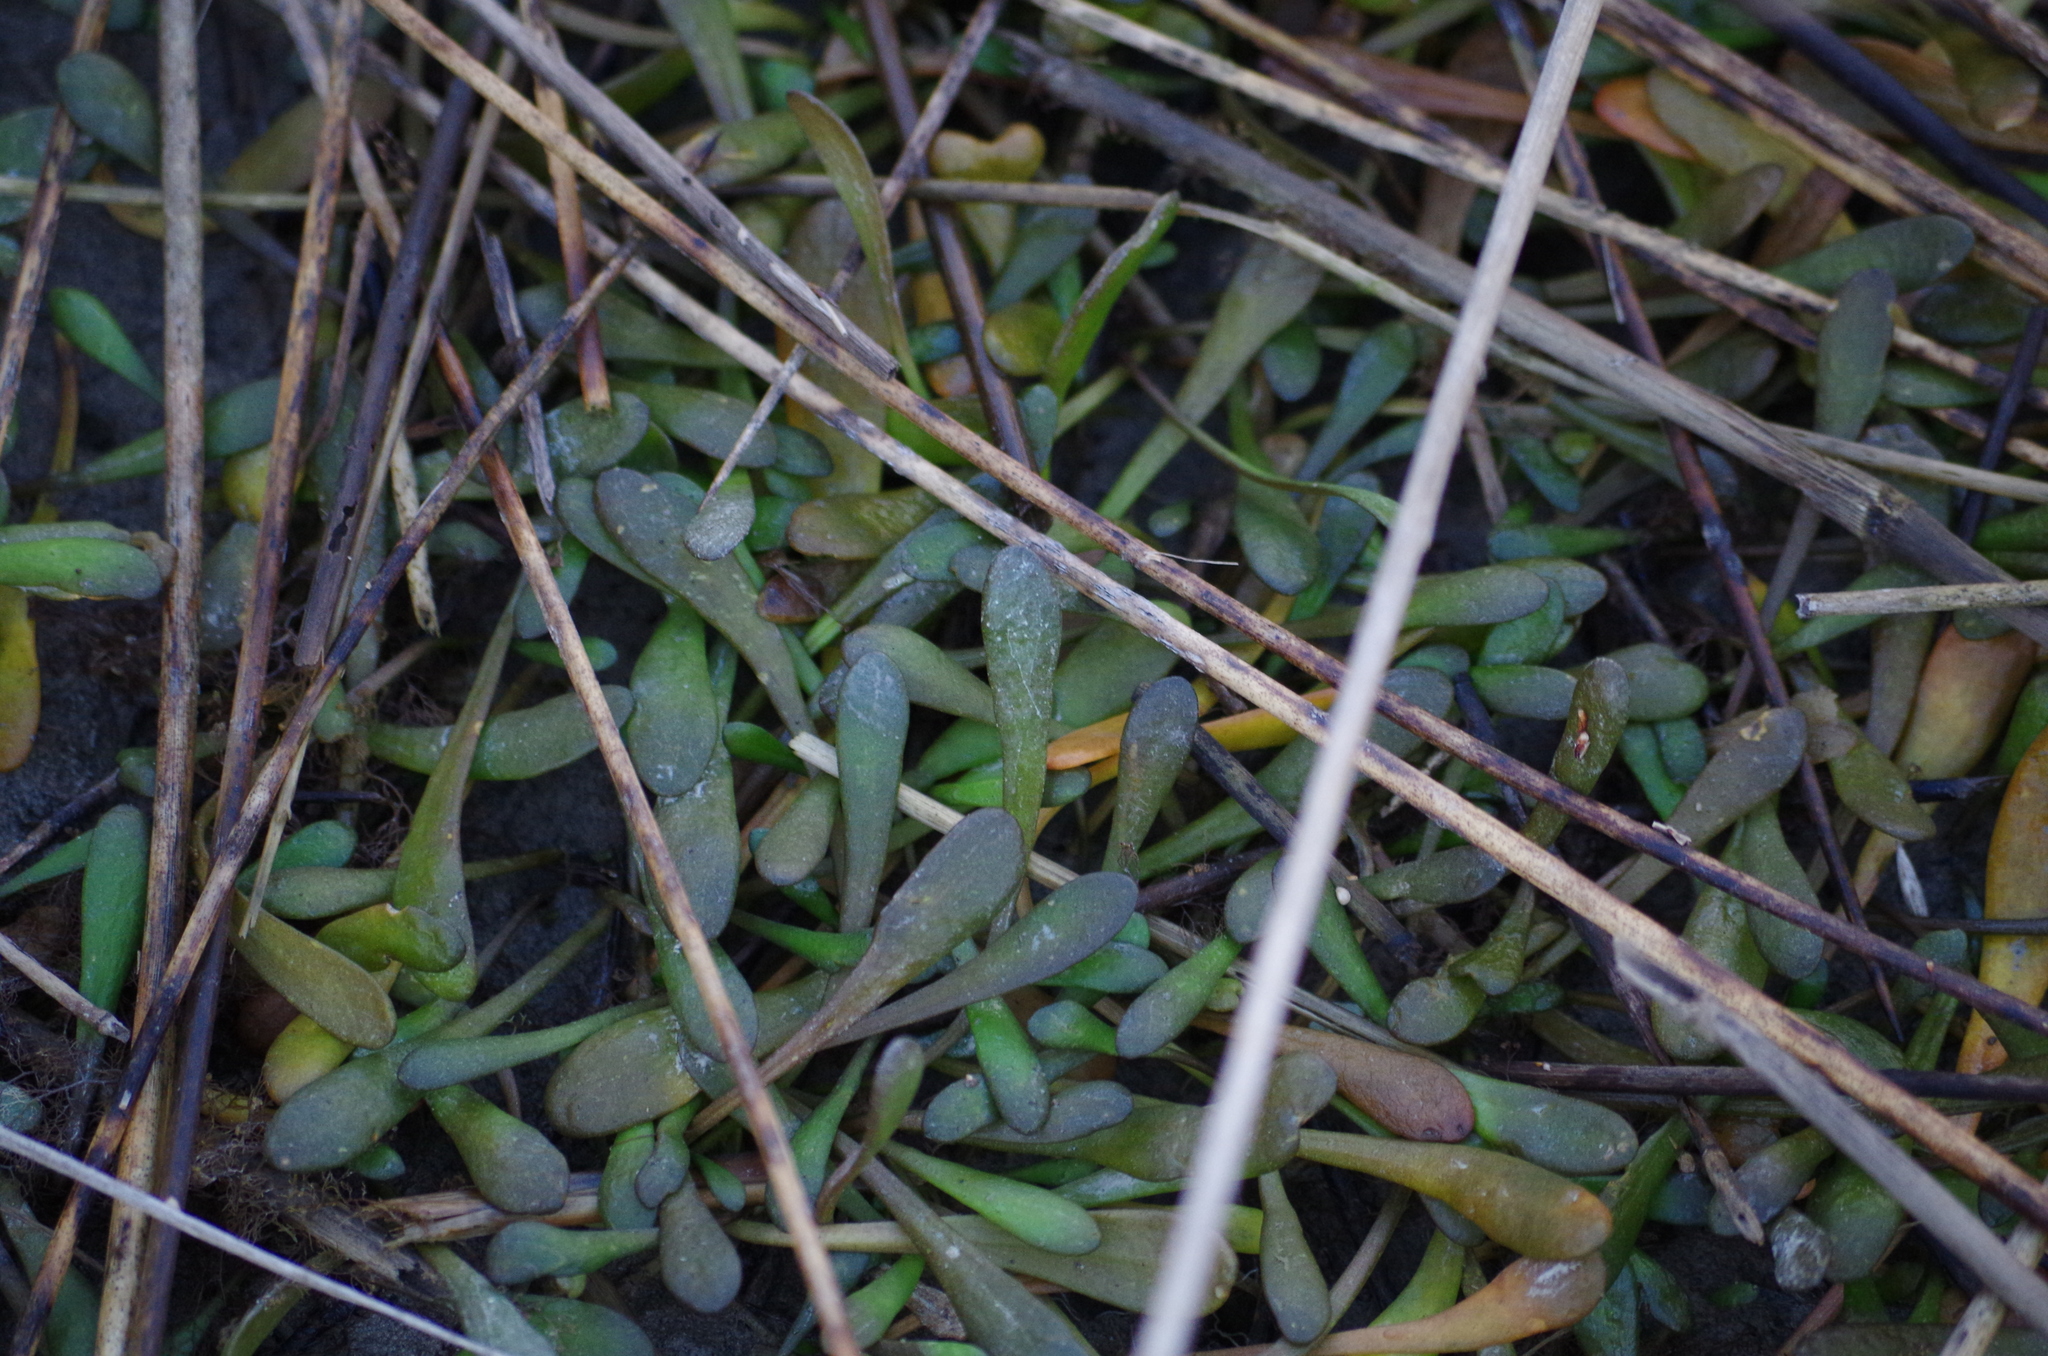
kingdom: Plantae
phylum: Tracheophyta
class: Magnoliopsida
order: Asterales
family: Goodeniaceae
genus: Goodenia
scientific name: Goodenia radicans
